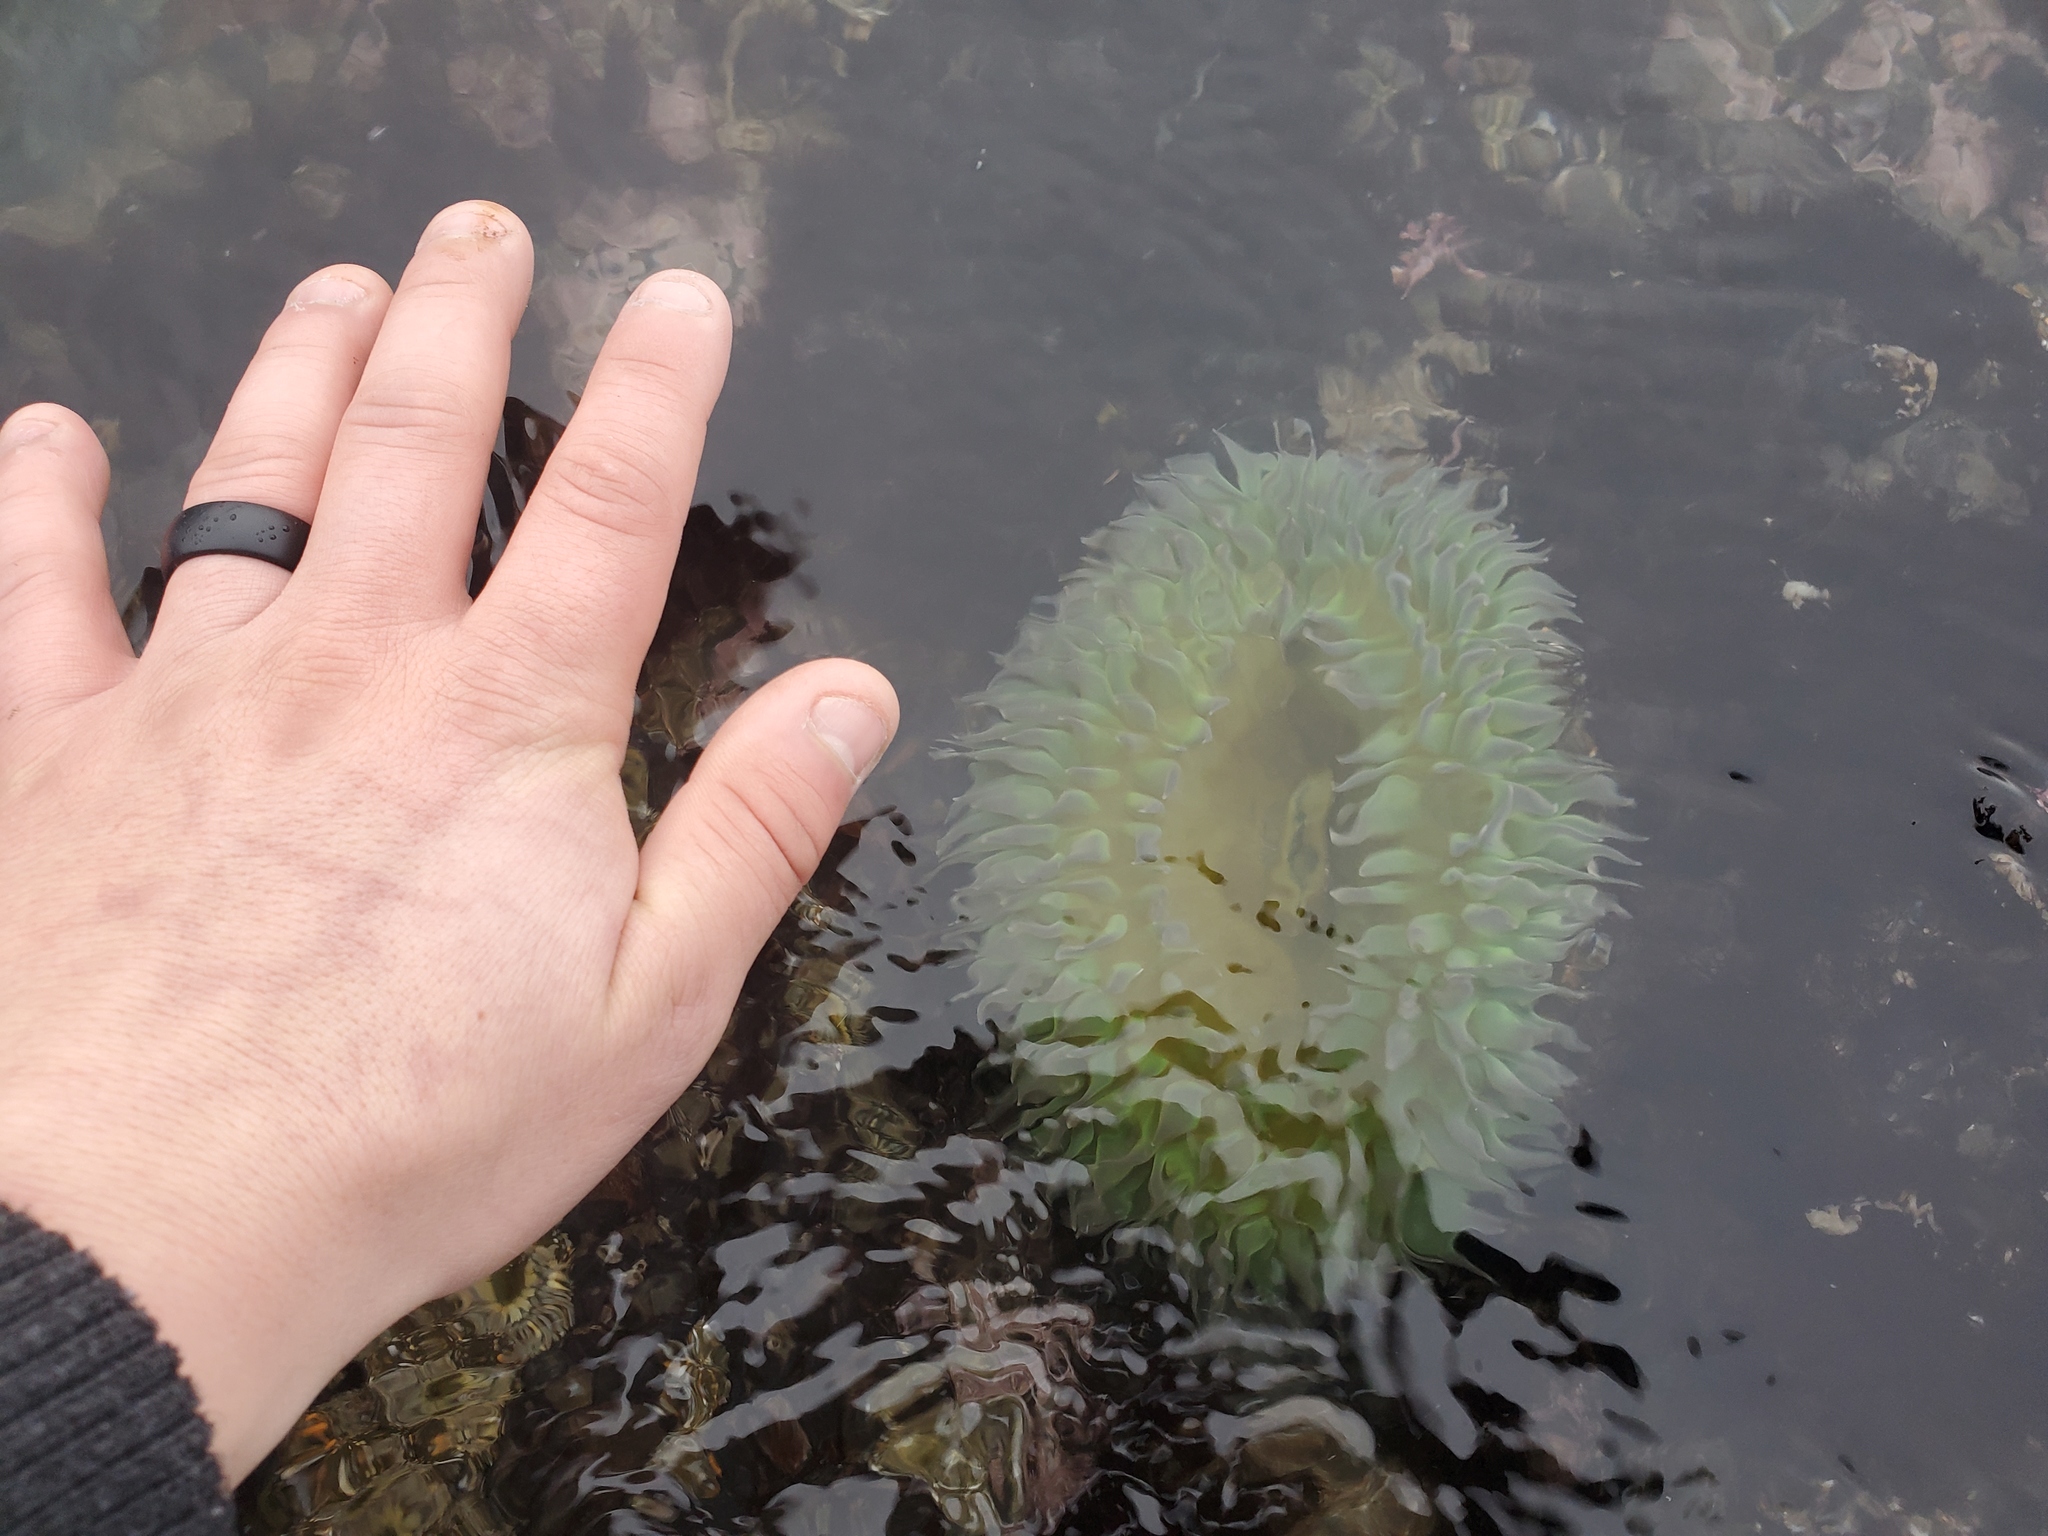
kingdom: Animalia
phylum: Cnidaria
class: Anthozoa
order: Actiniaria
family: Actiniidae
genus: Anthopleura
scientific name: Anthopleura xanthogrammica
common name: Giant green anemone
